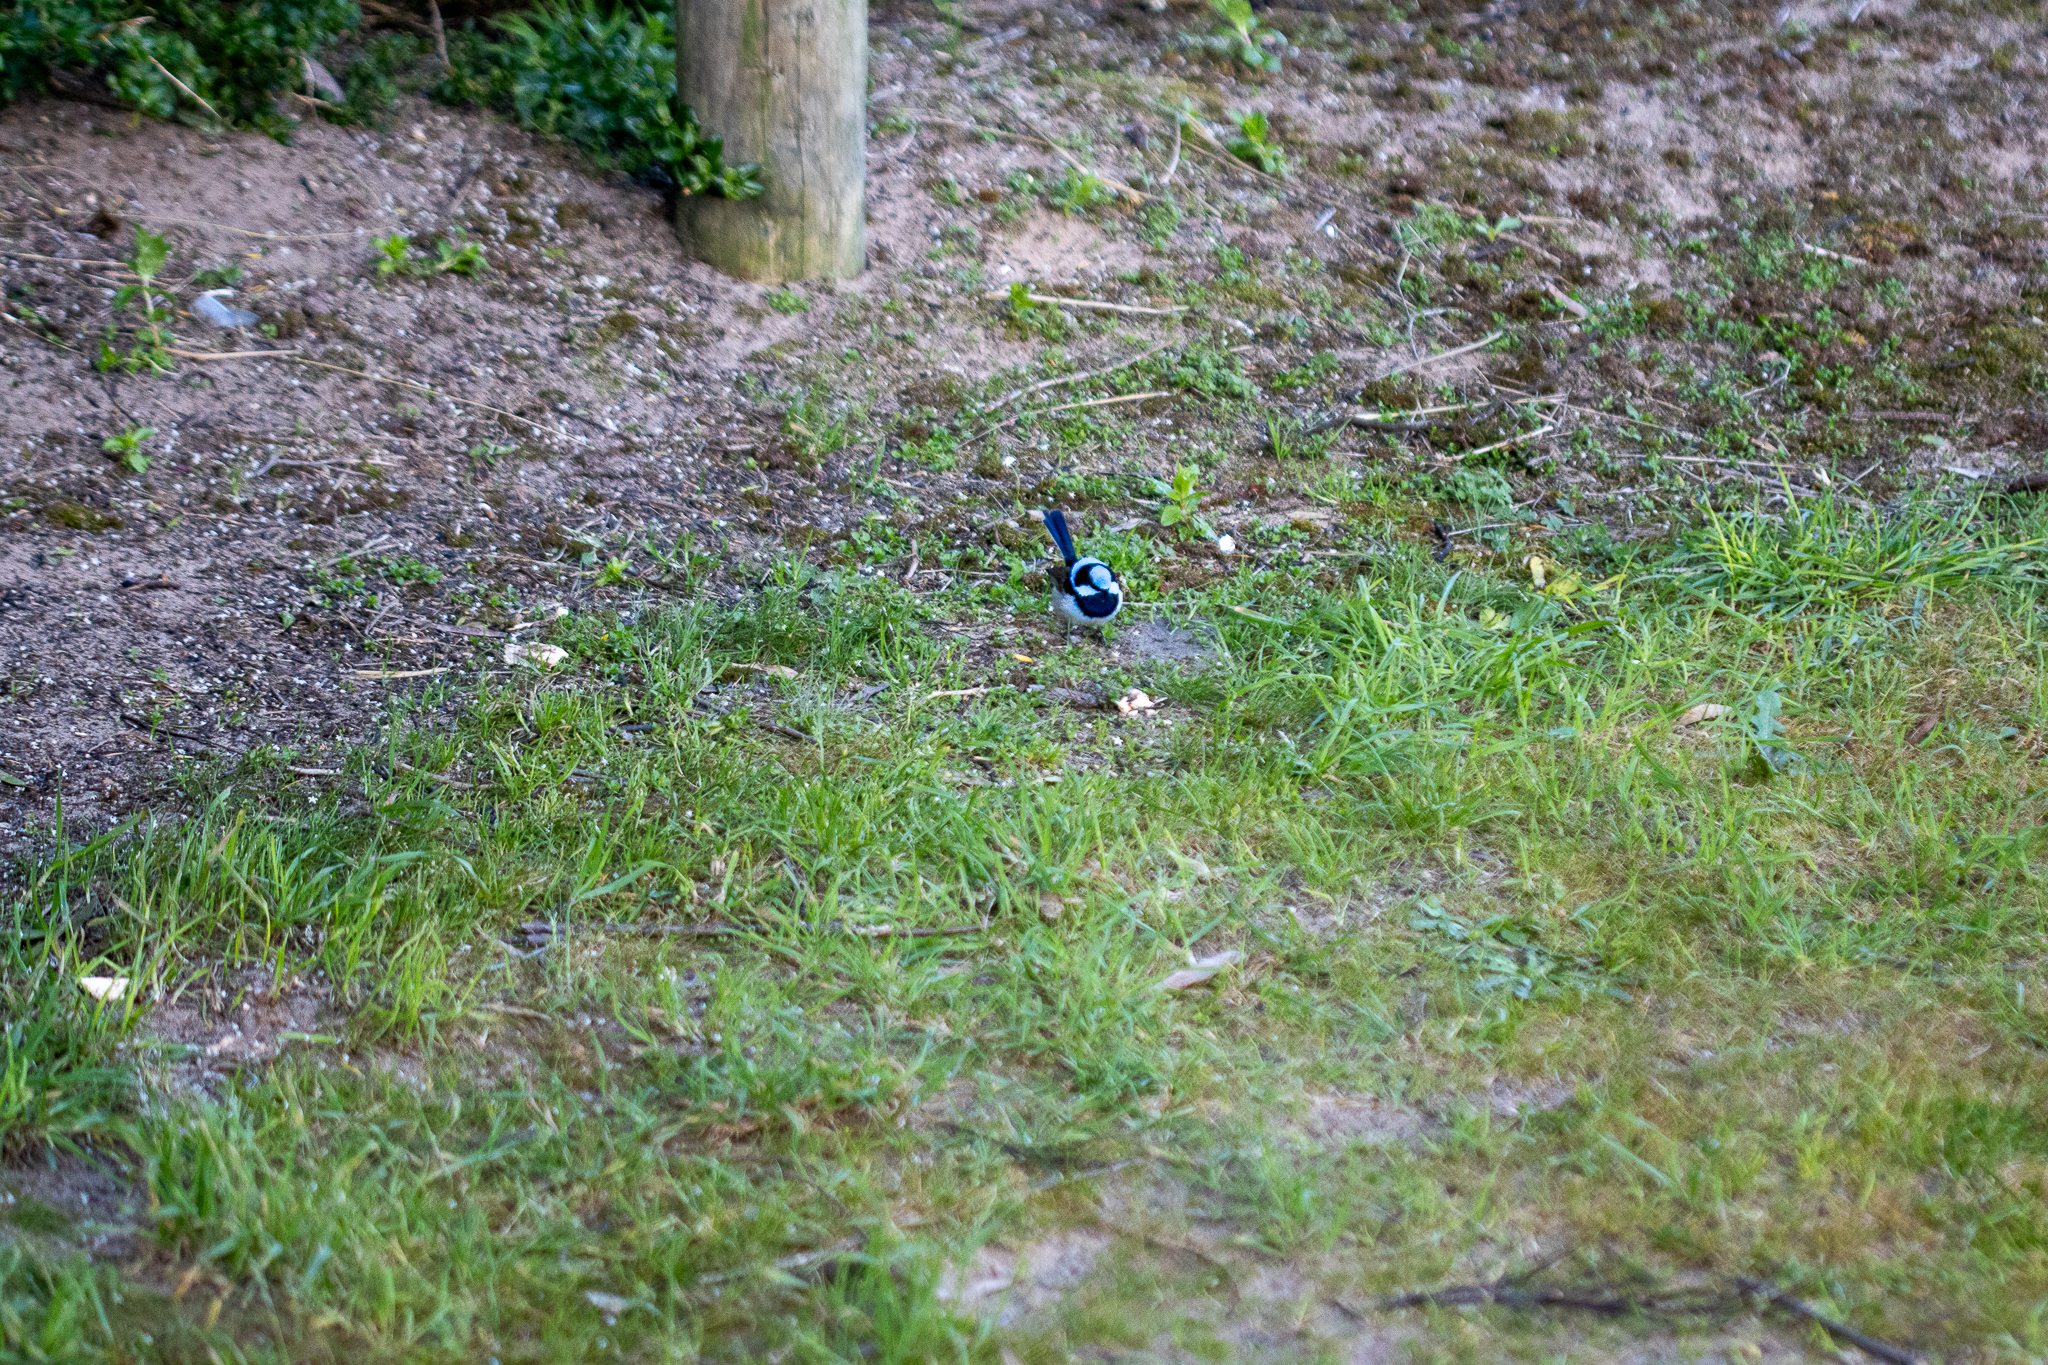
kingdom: Animalia
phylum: Chordata
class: Aves
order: Passeriformes
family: Maluridae
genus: Malurus
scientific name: Malurus cyaneus
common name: Superb fairywren
